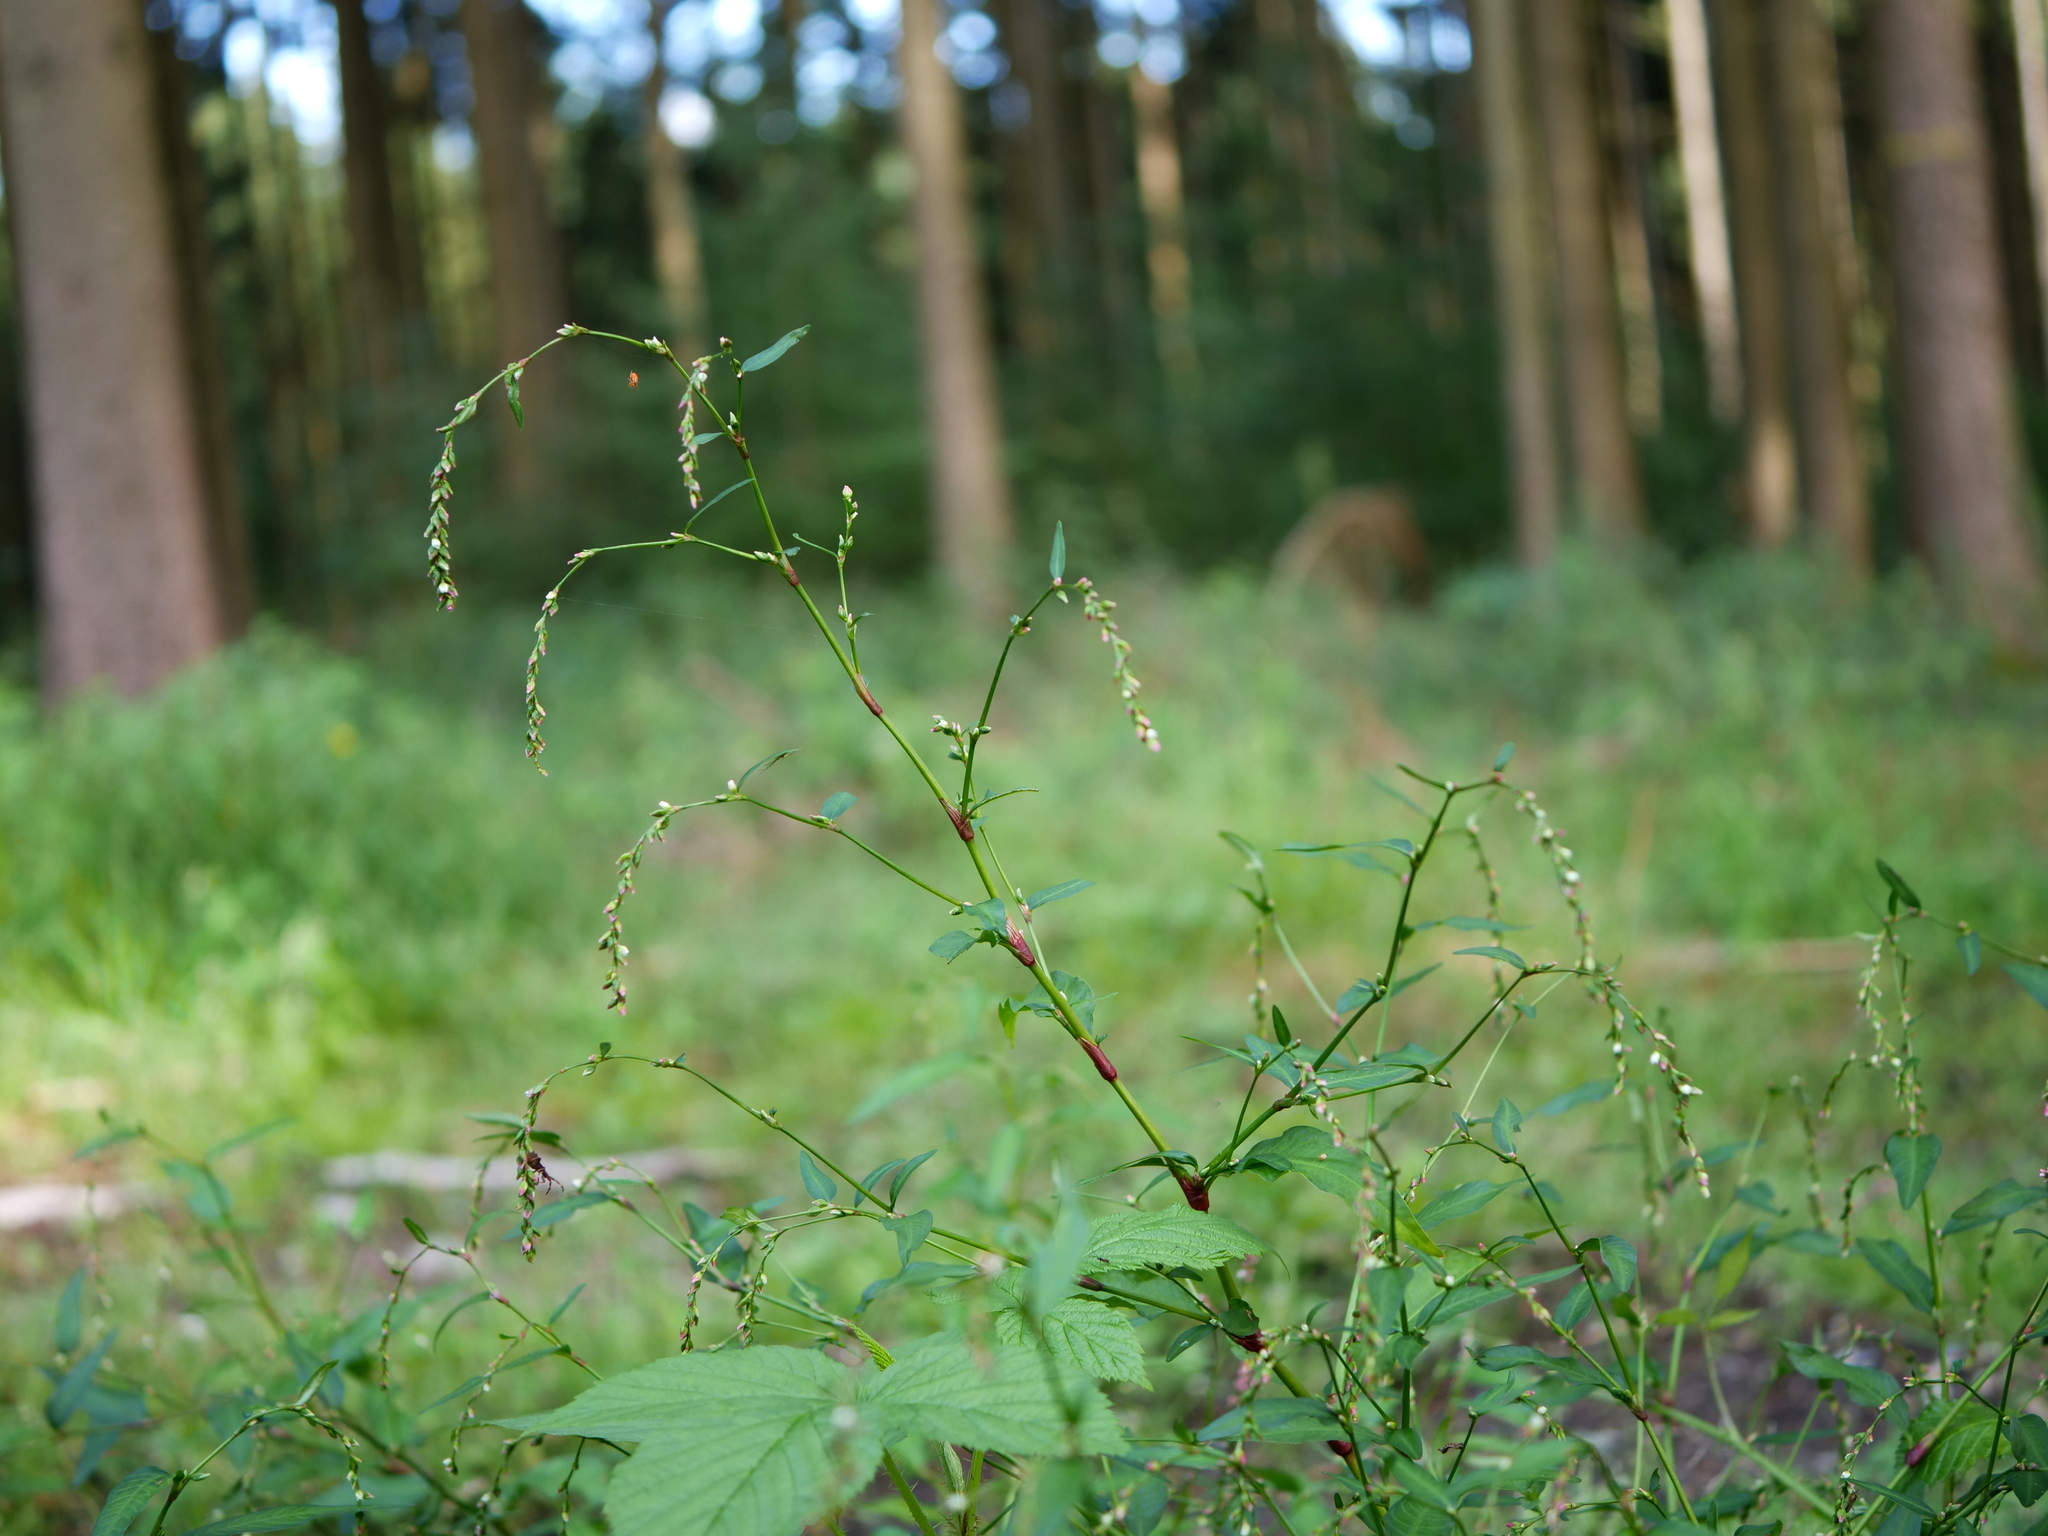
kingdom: Plantae
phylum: Tracheophyta
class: Magnoliopsida
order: Caryophyllales
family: Polygonaceae
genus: Persicaria
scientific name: Persicaria hydropiper
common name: Water-pepper
